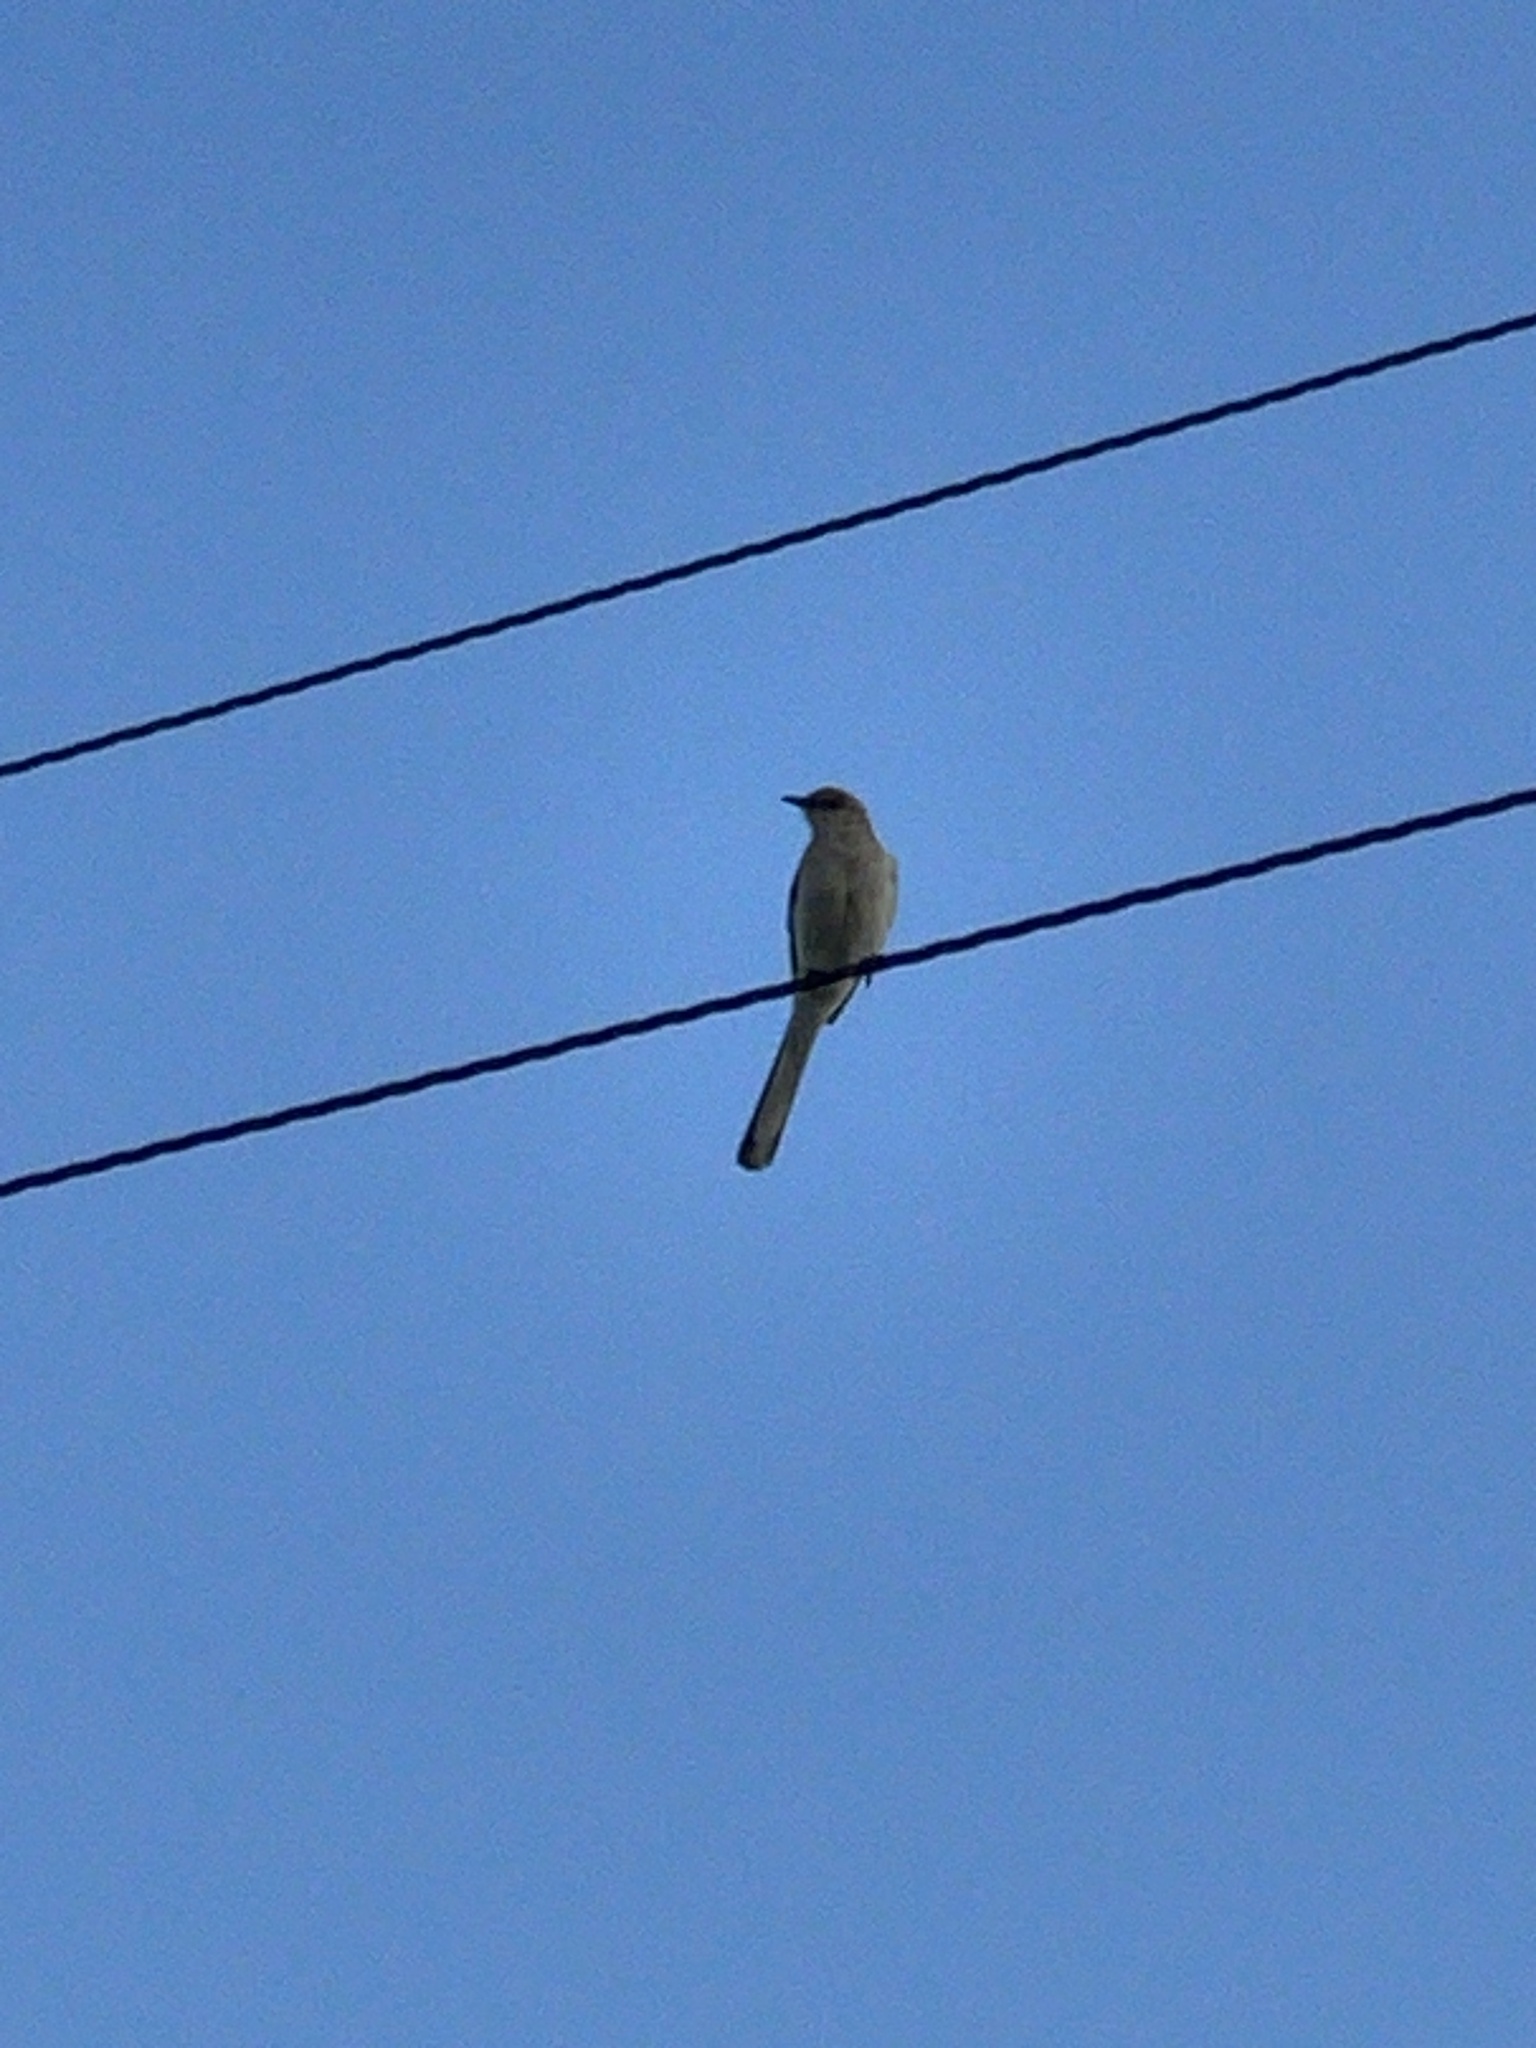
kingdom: Animalia
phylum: Chordata
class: Aves
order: Passeriformes
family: Mimidae
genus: Mimus
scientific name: Mimus polyglottos
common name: Northern mockingbird
